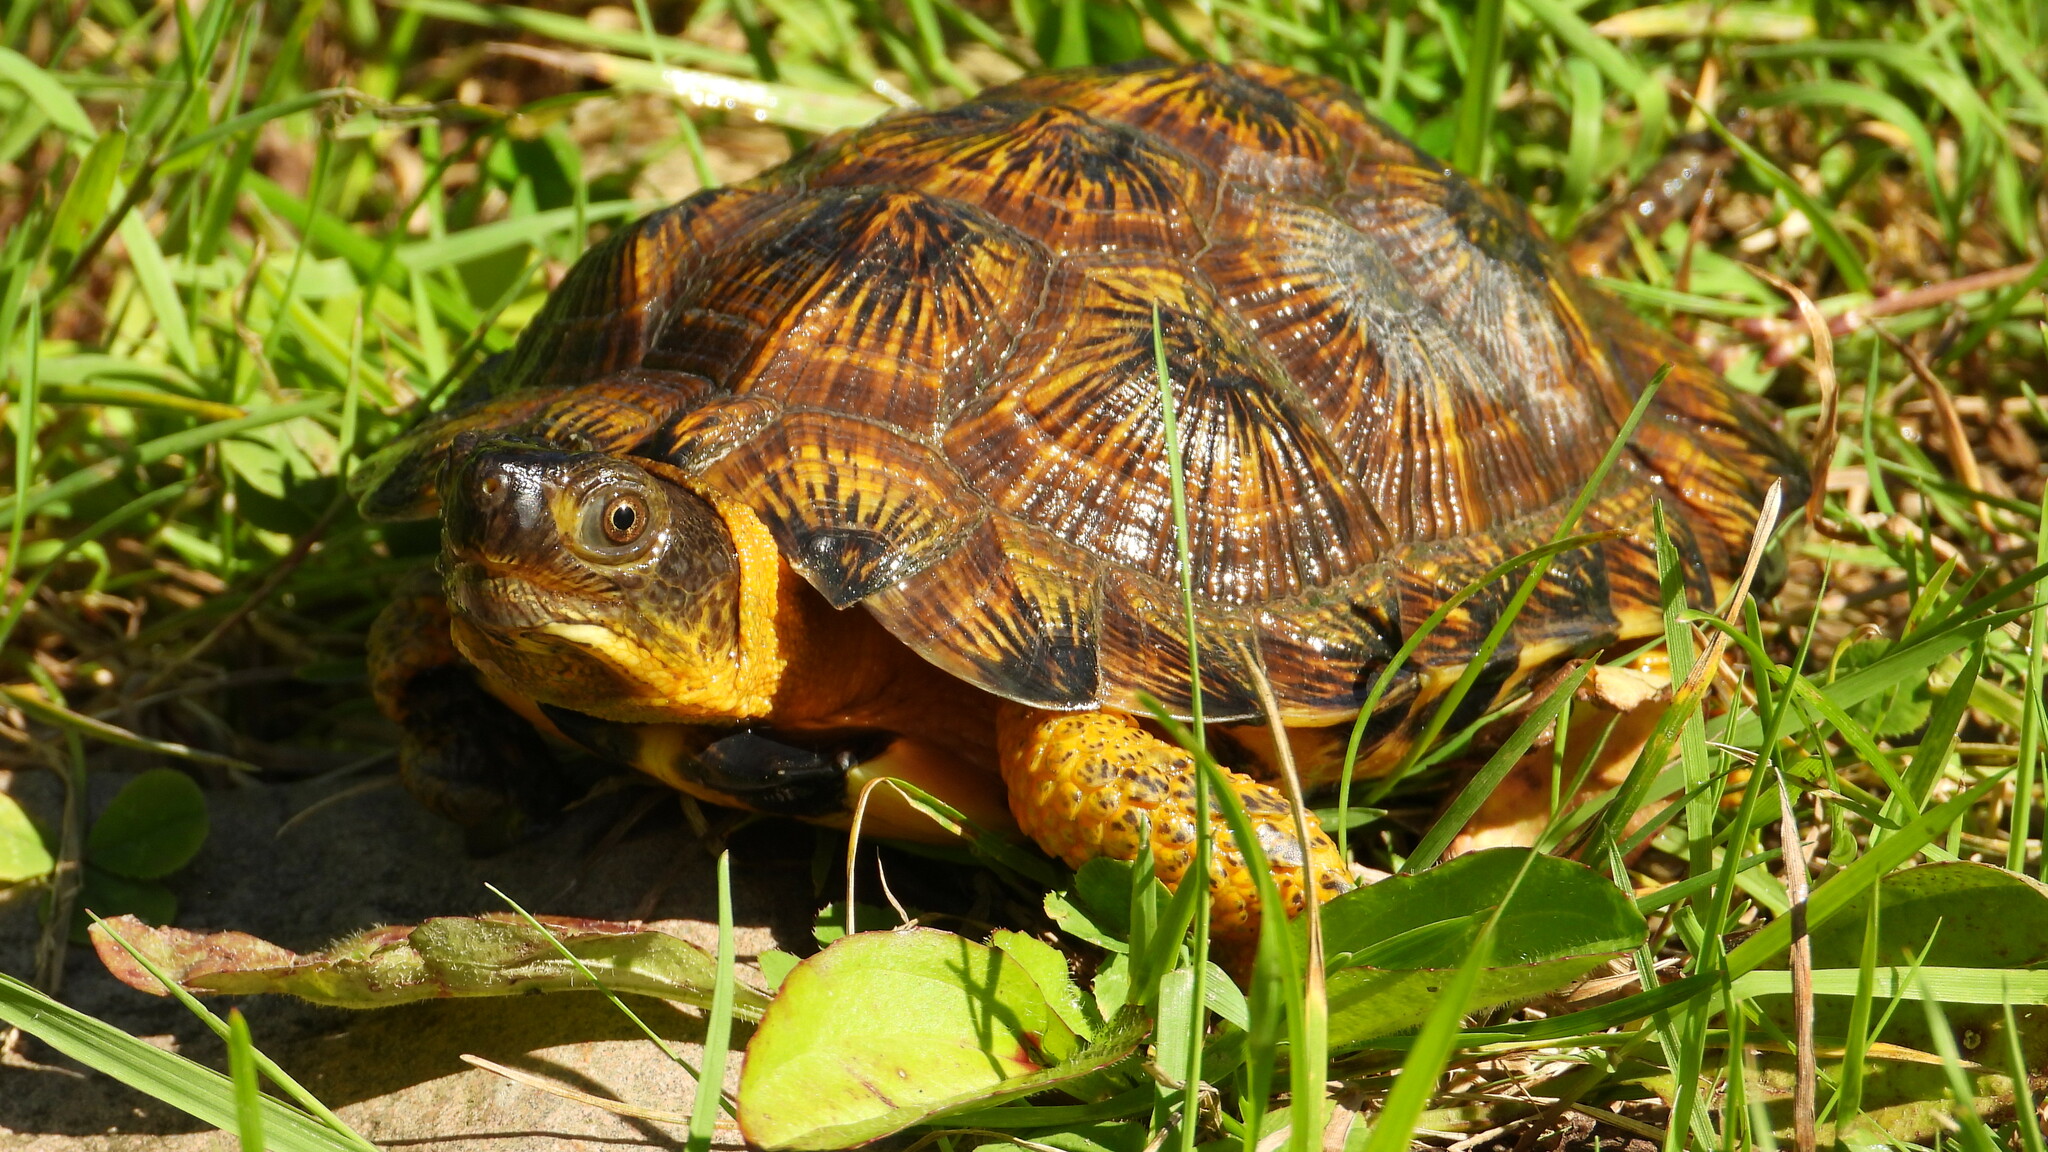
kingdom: Animalia
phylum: Chordata
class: Testudines
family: Emydidae
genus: Glyptemys
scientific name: Glyptemys insculpta
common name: Wood turtle
